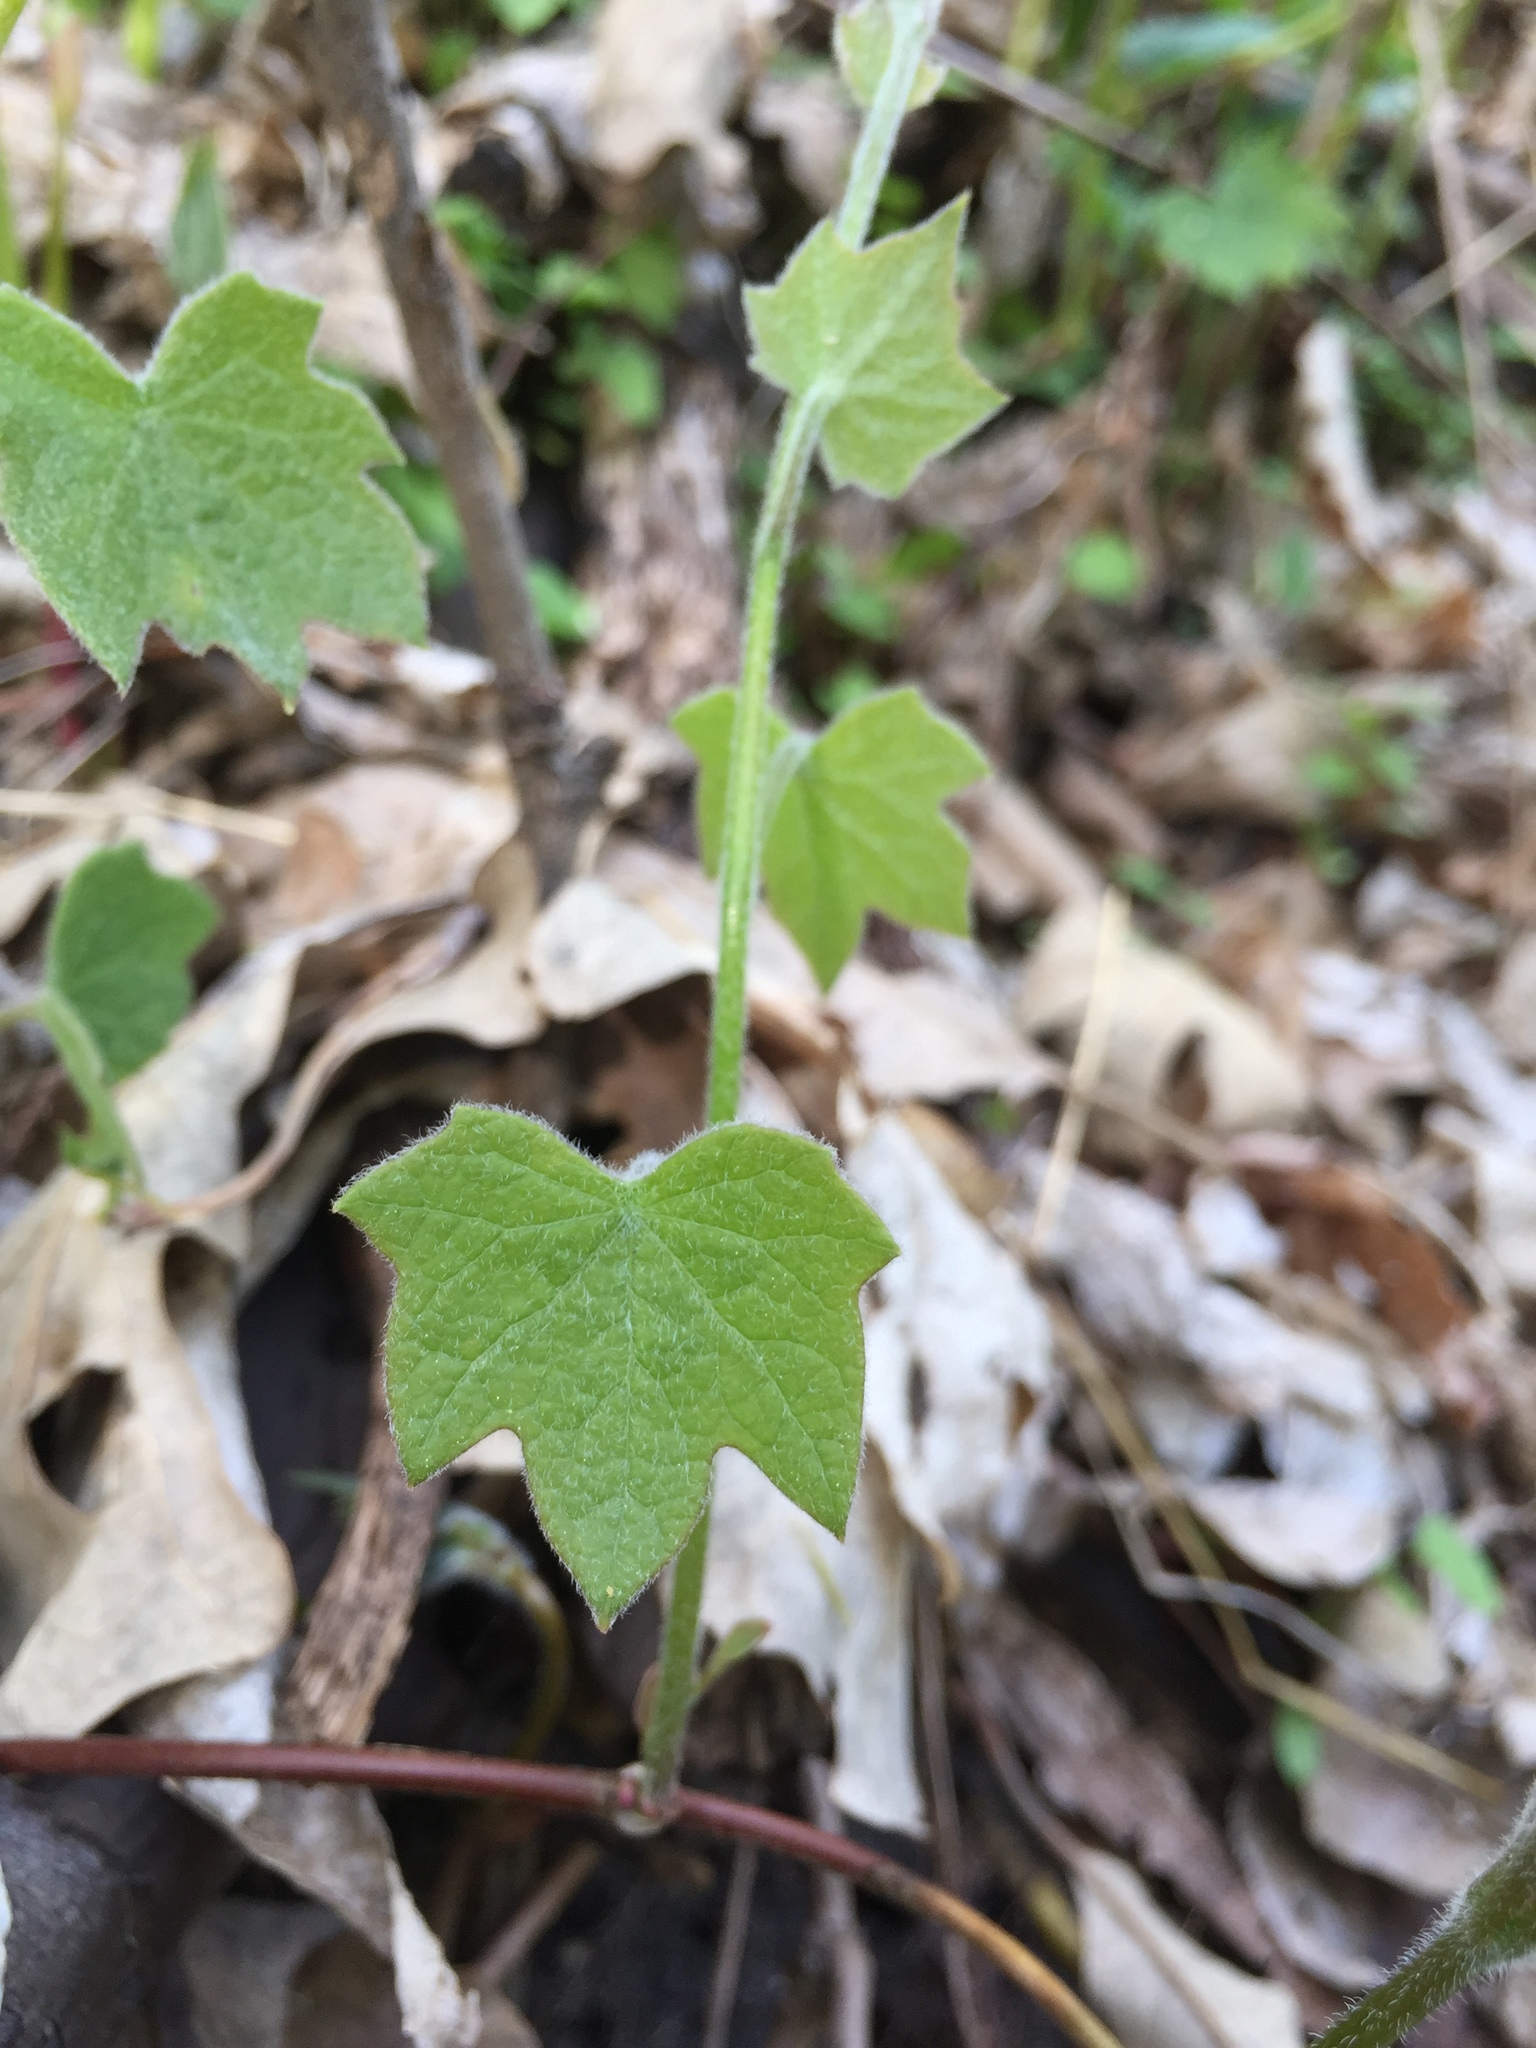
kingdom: Plantae
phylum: Tracheophyta
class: Magnoliopsida
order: Ranunculales
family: Menispermaceae
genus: Menispermum
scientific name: Menispermum canadense
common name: Moonseed
